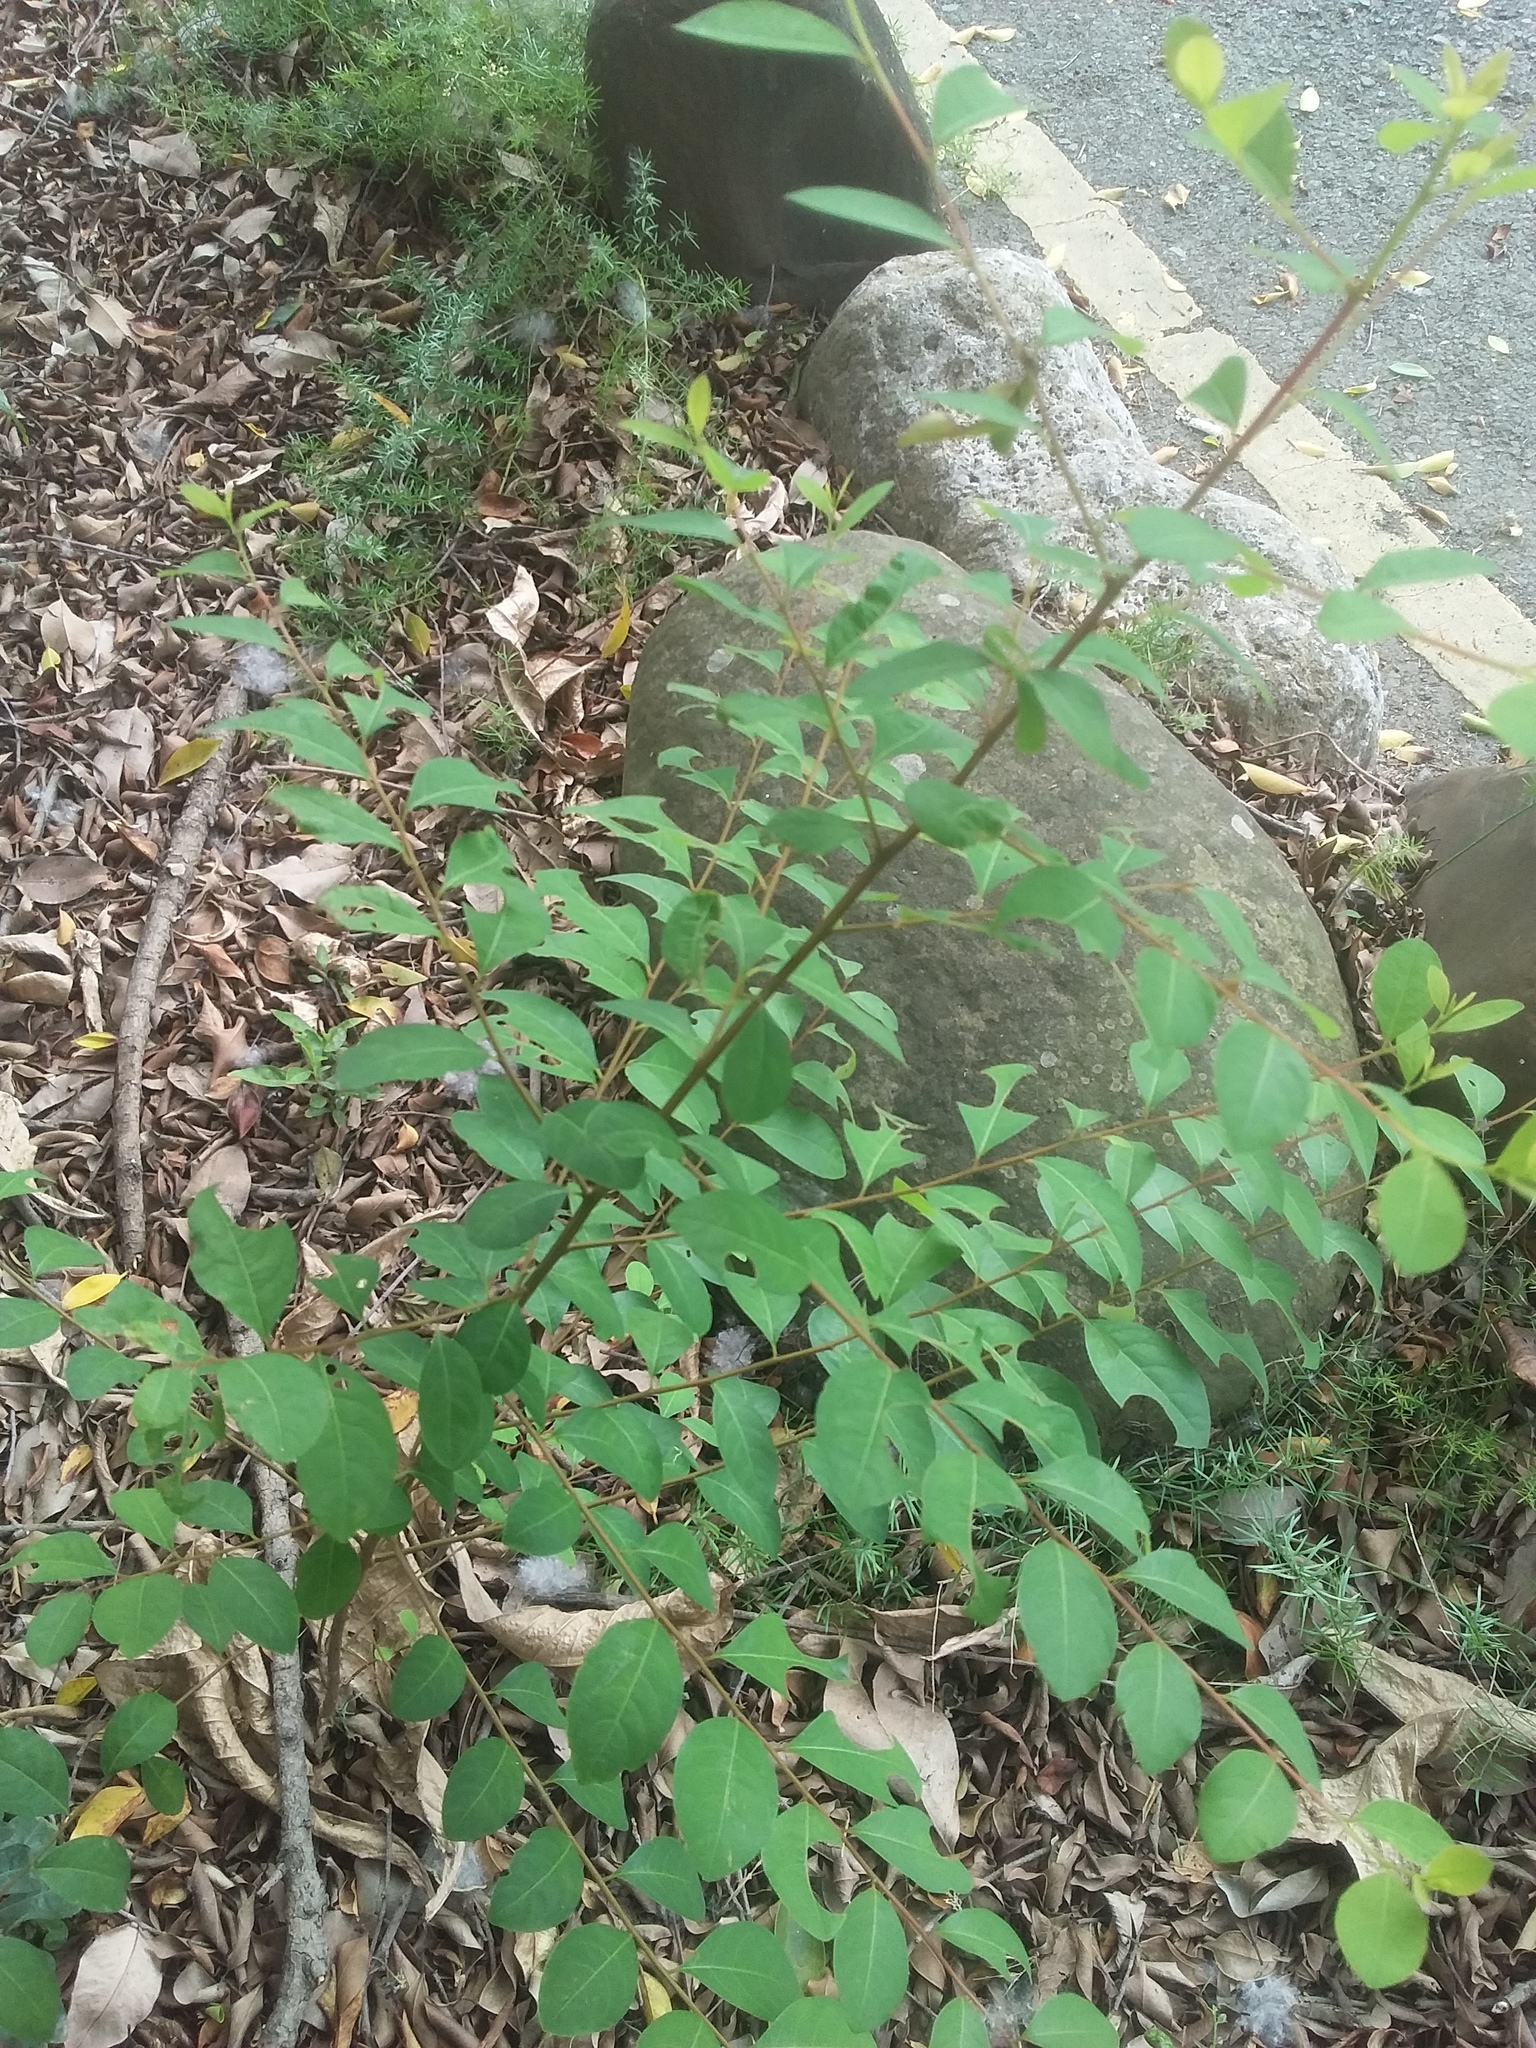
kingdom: Plantae
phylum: Tracheophyta
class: Magnoliopsida
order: Malpighiales
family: Phyllanthaceae
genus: Flueggea
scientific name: Flueggea virosa
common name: Common bushweed
